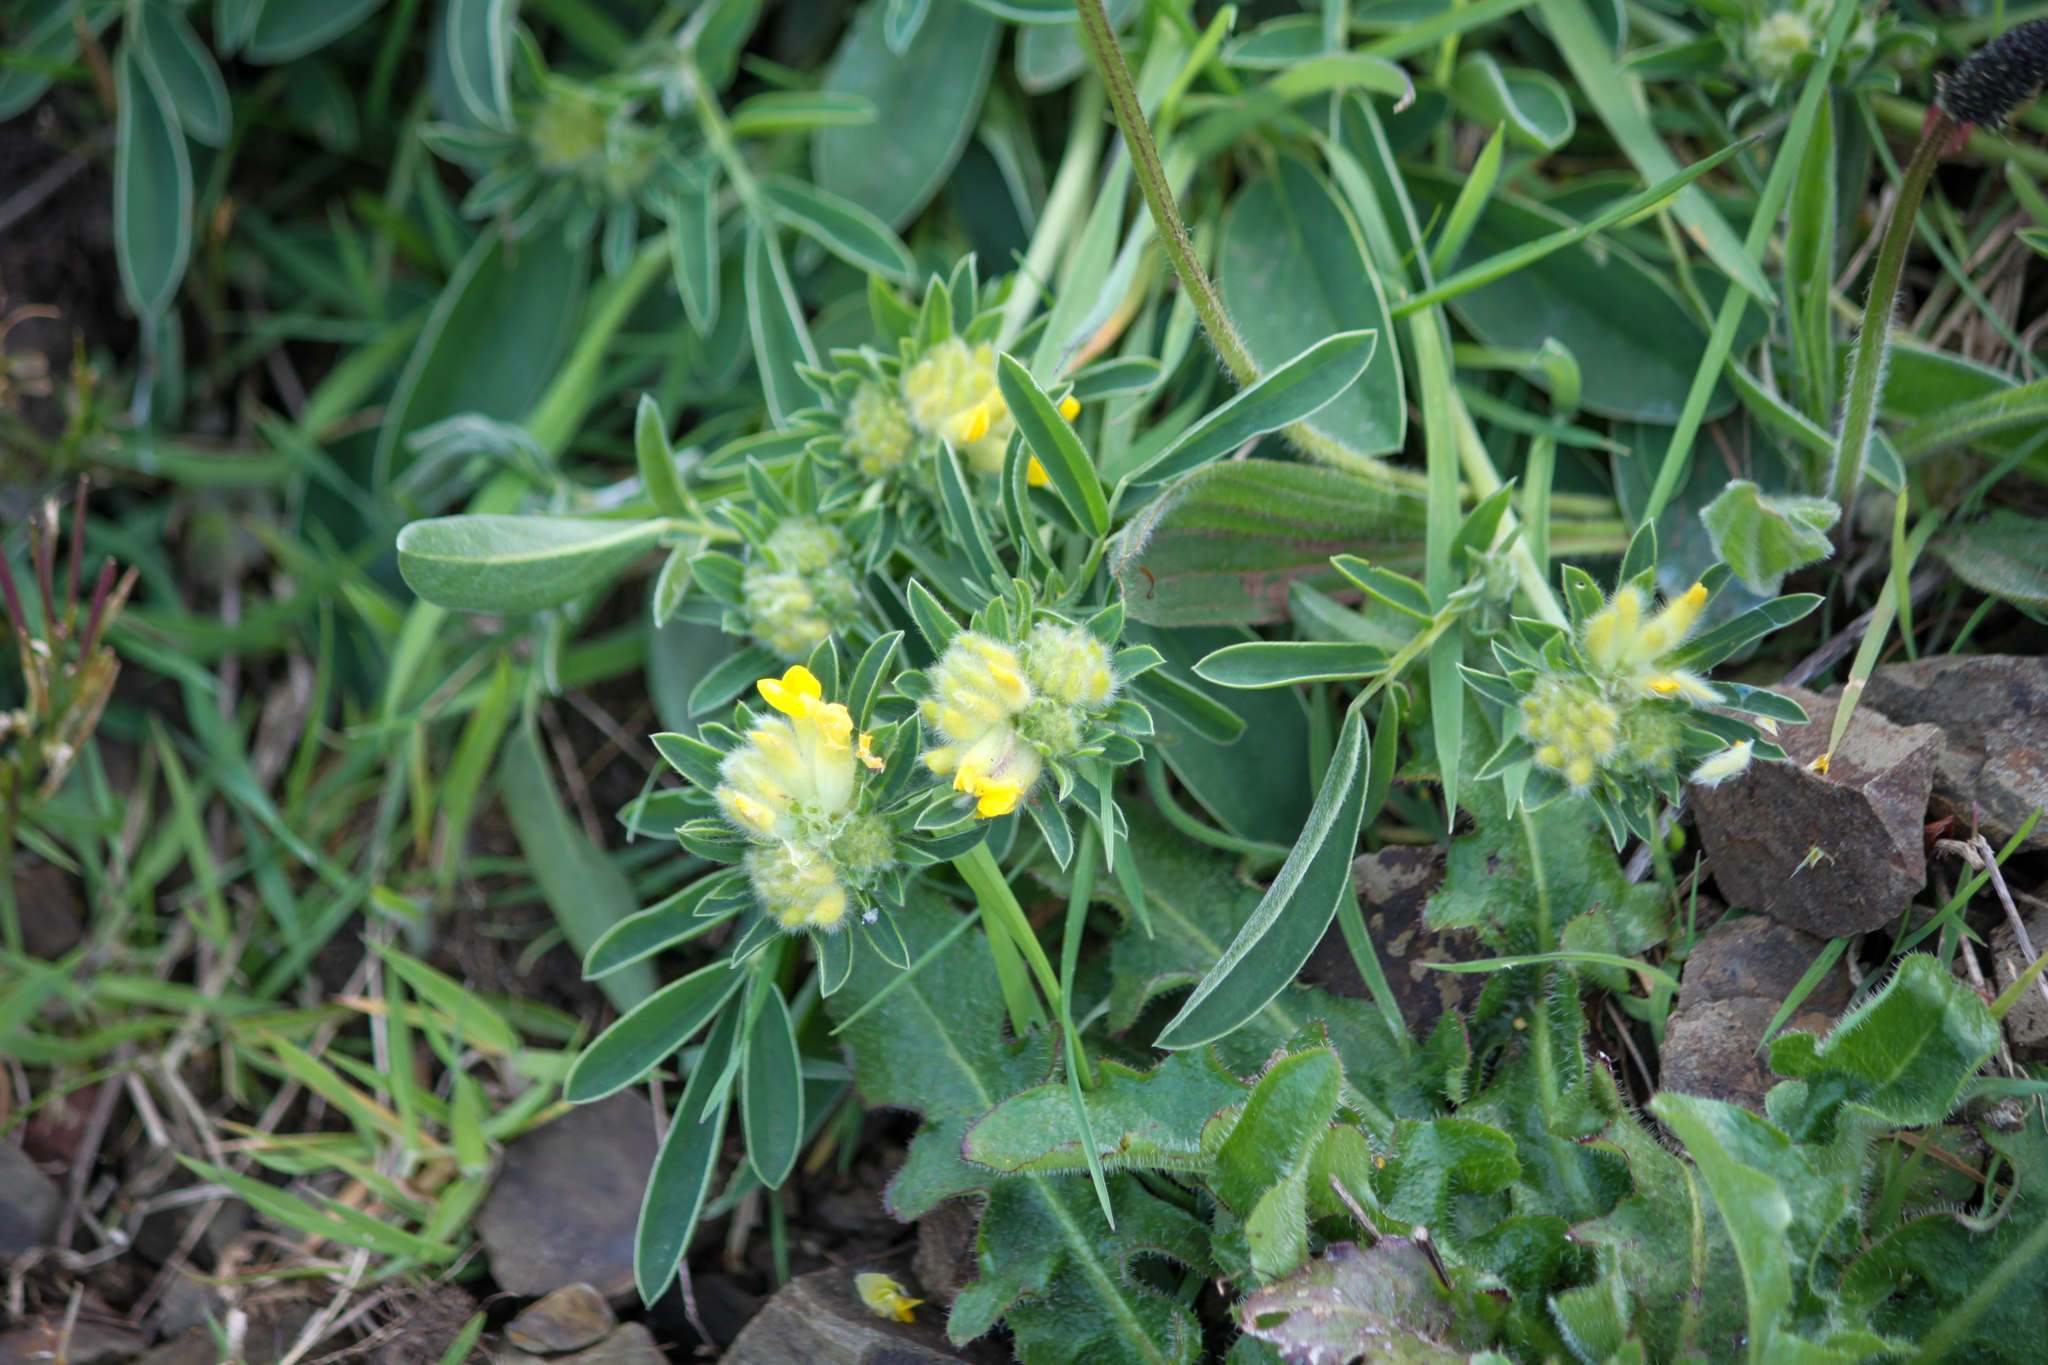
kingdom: Plantae
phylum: Tracheophyta
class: Magnoliopsida
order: Fabales
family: Fabaceae
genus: Anthyllis
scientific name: Anthyllis vulneraria
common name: Kidney vetch
